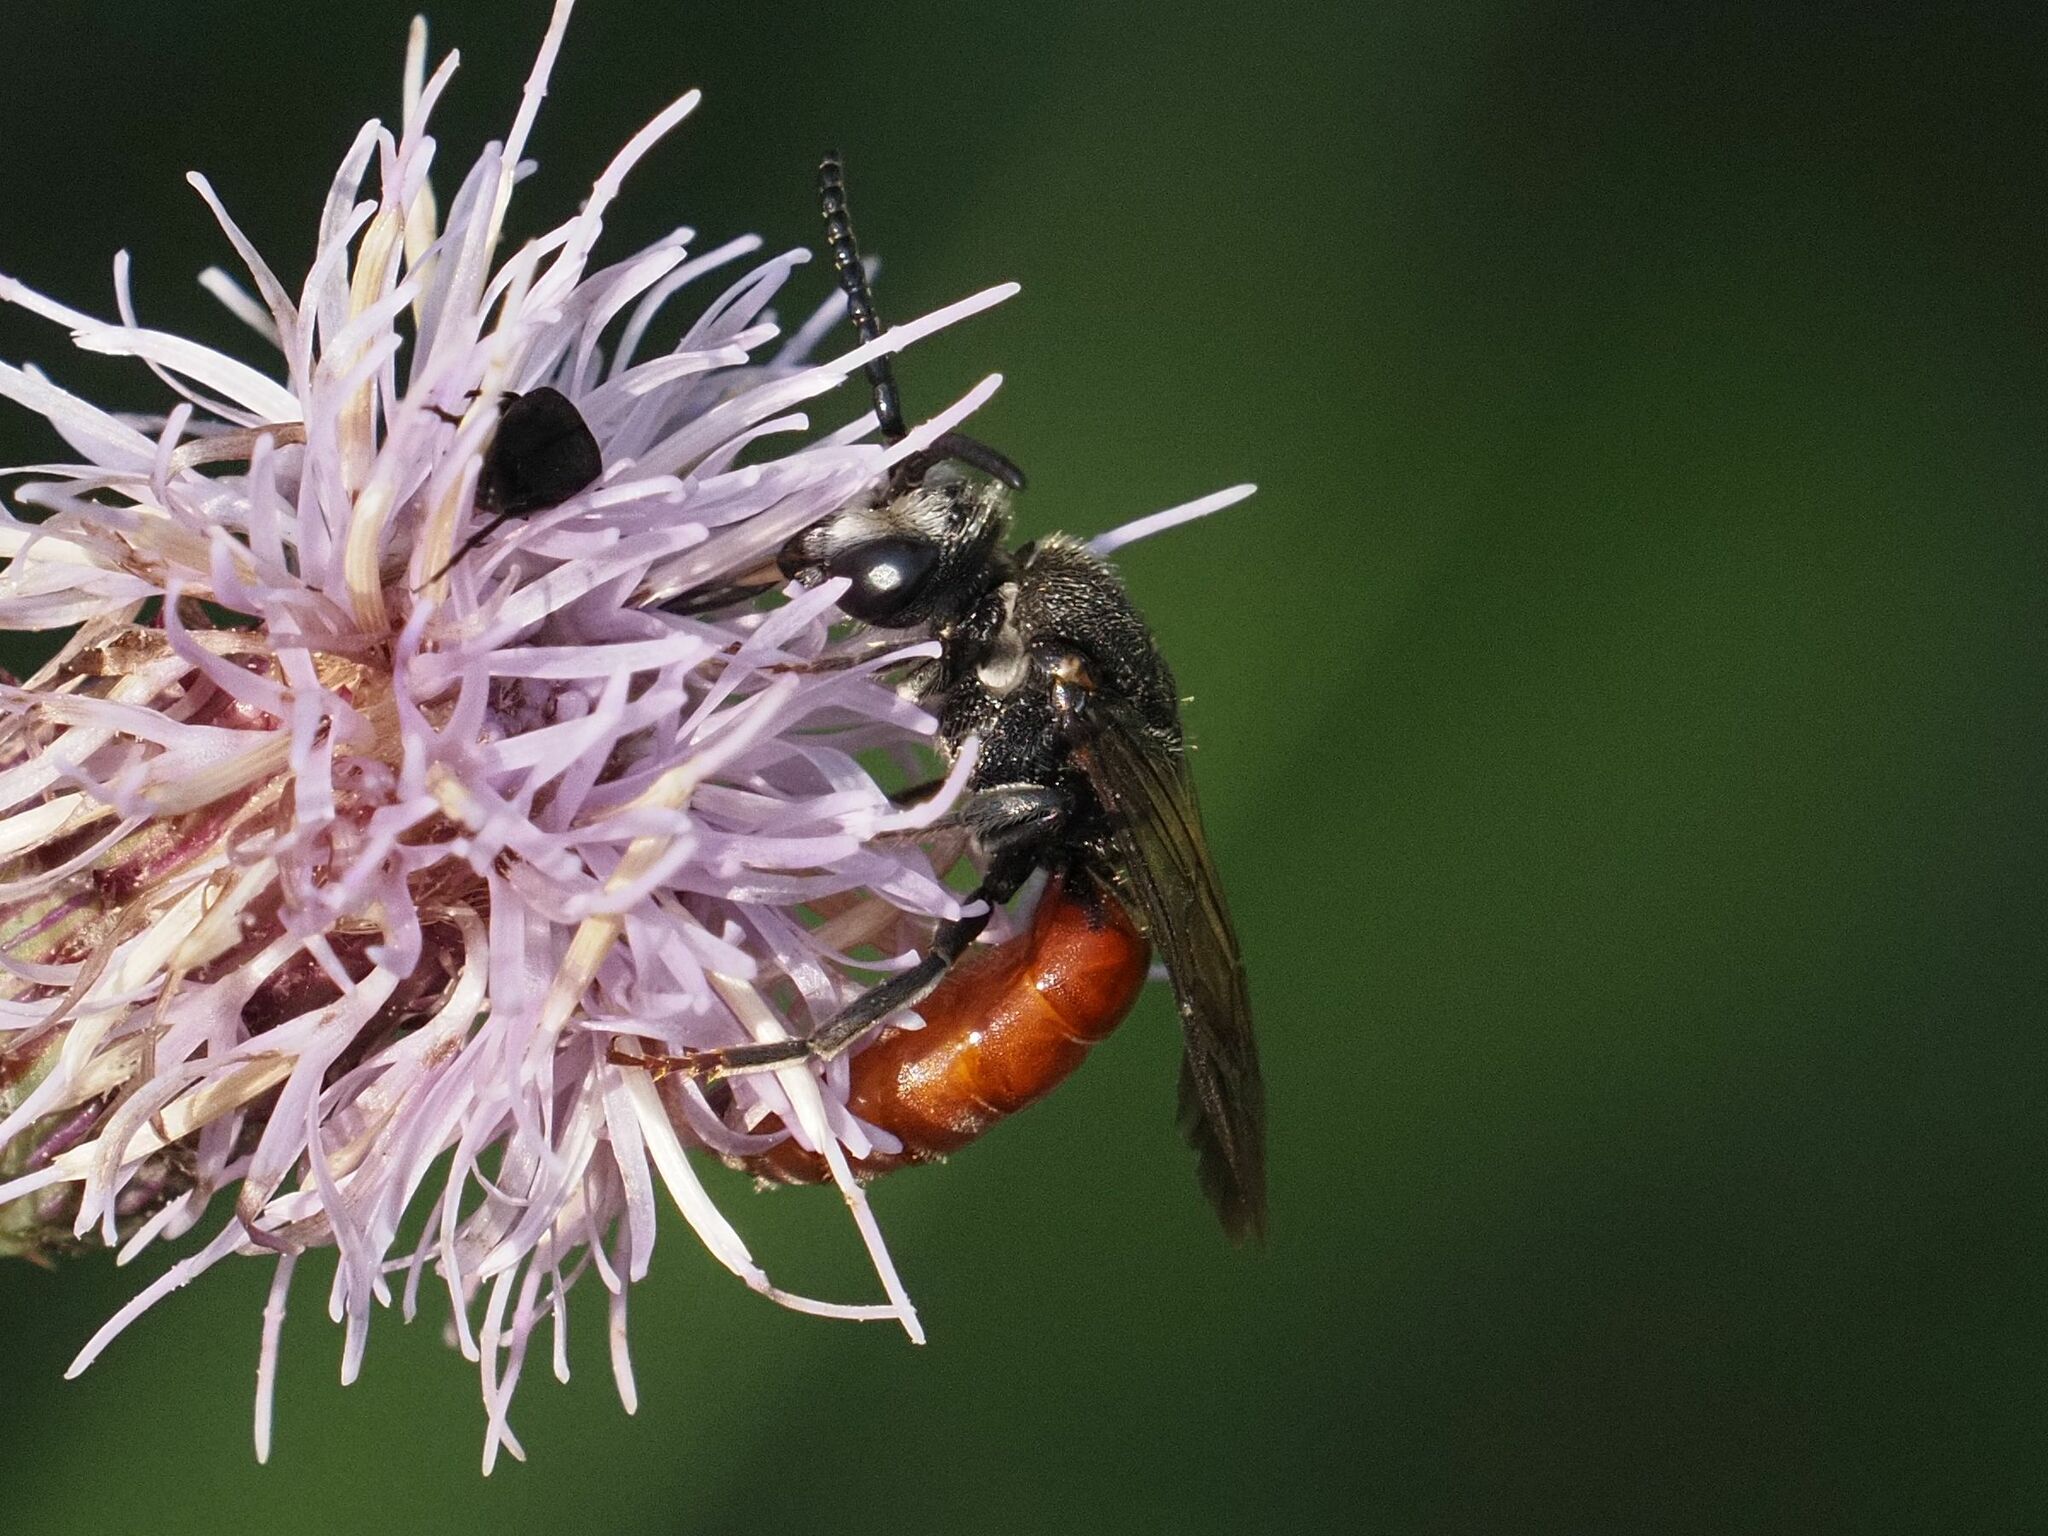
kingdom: Animalia
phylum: Arthropoda
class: Insecta
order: Hymenoptera
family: Halictidae
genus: Sphecodes
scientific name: Sphecodes albilabris
